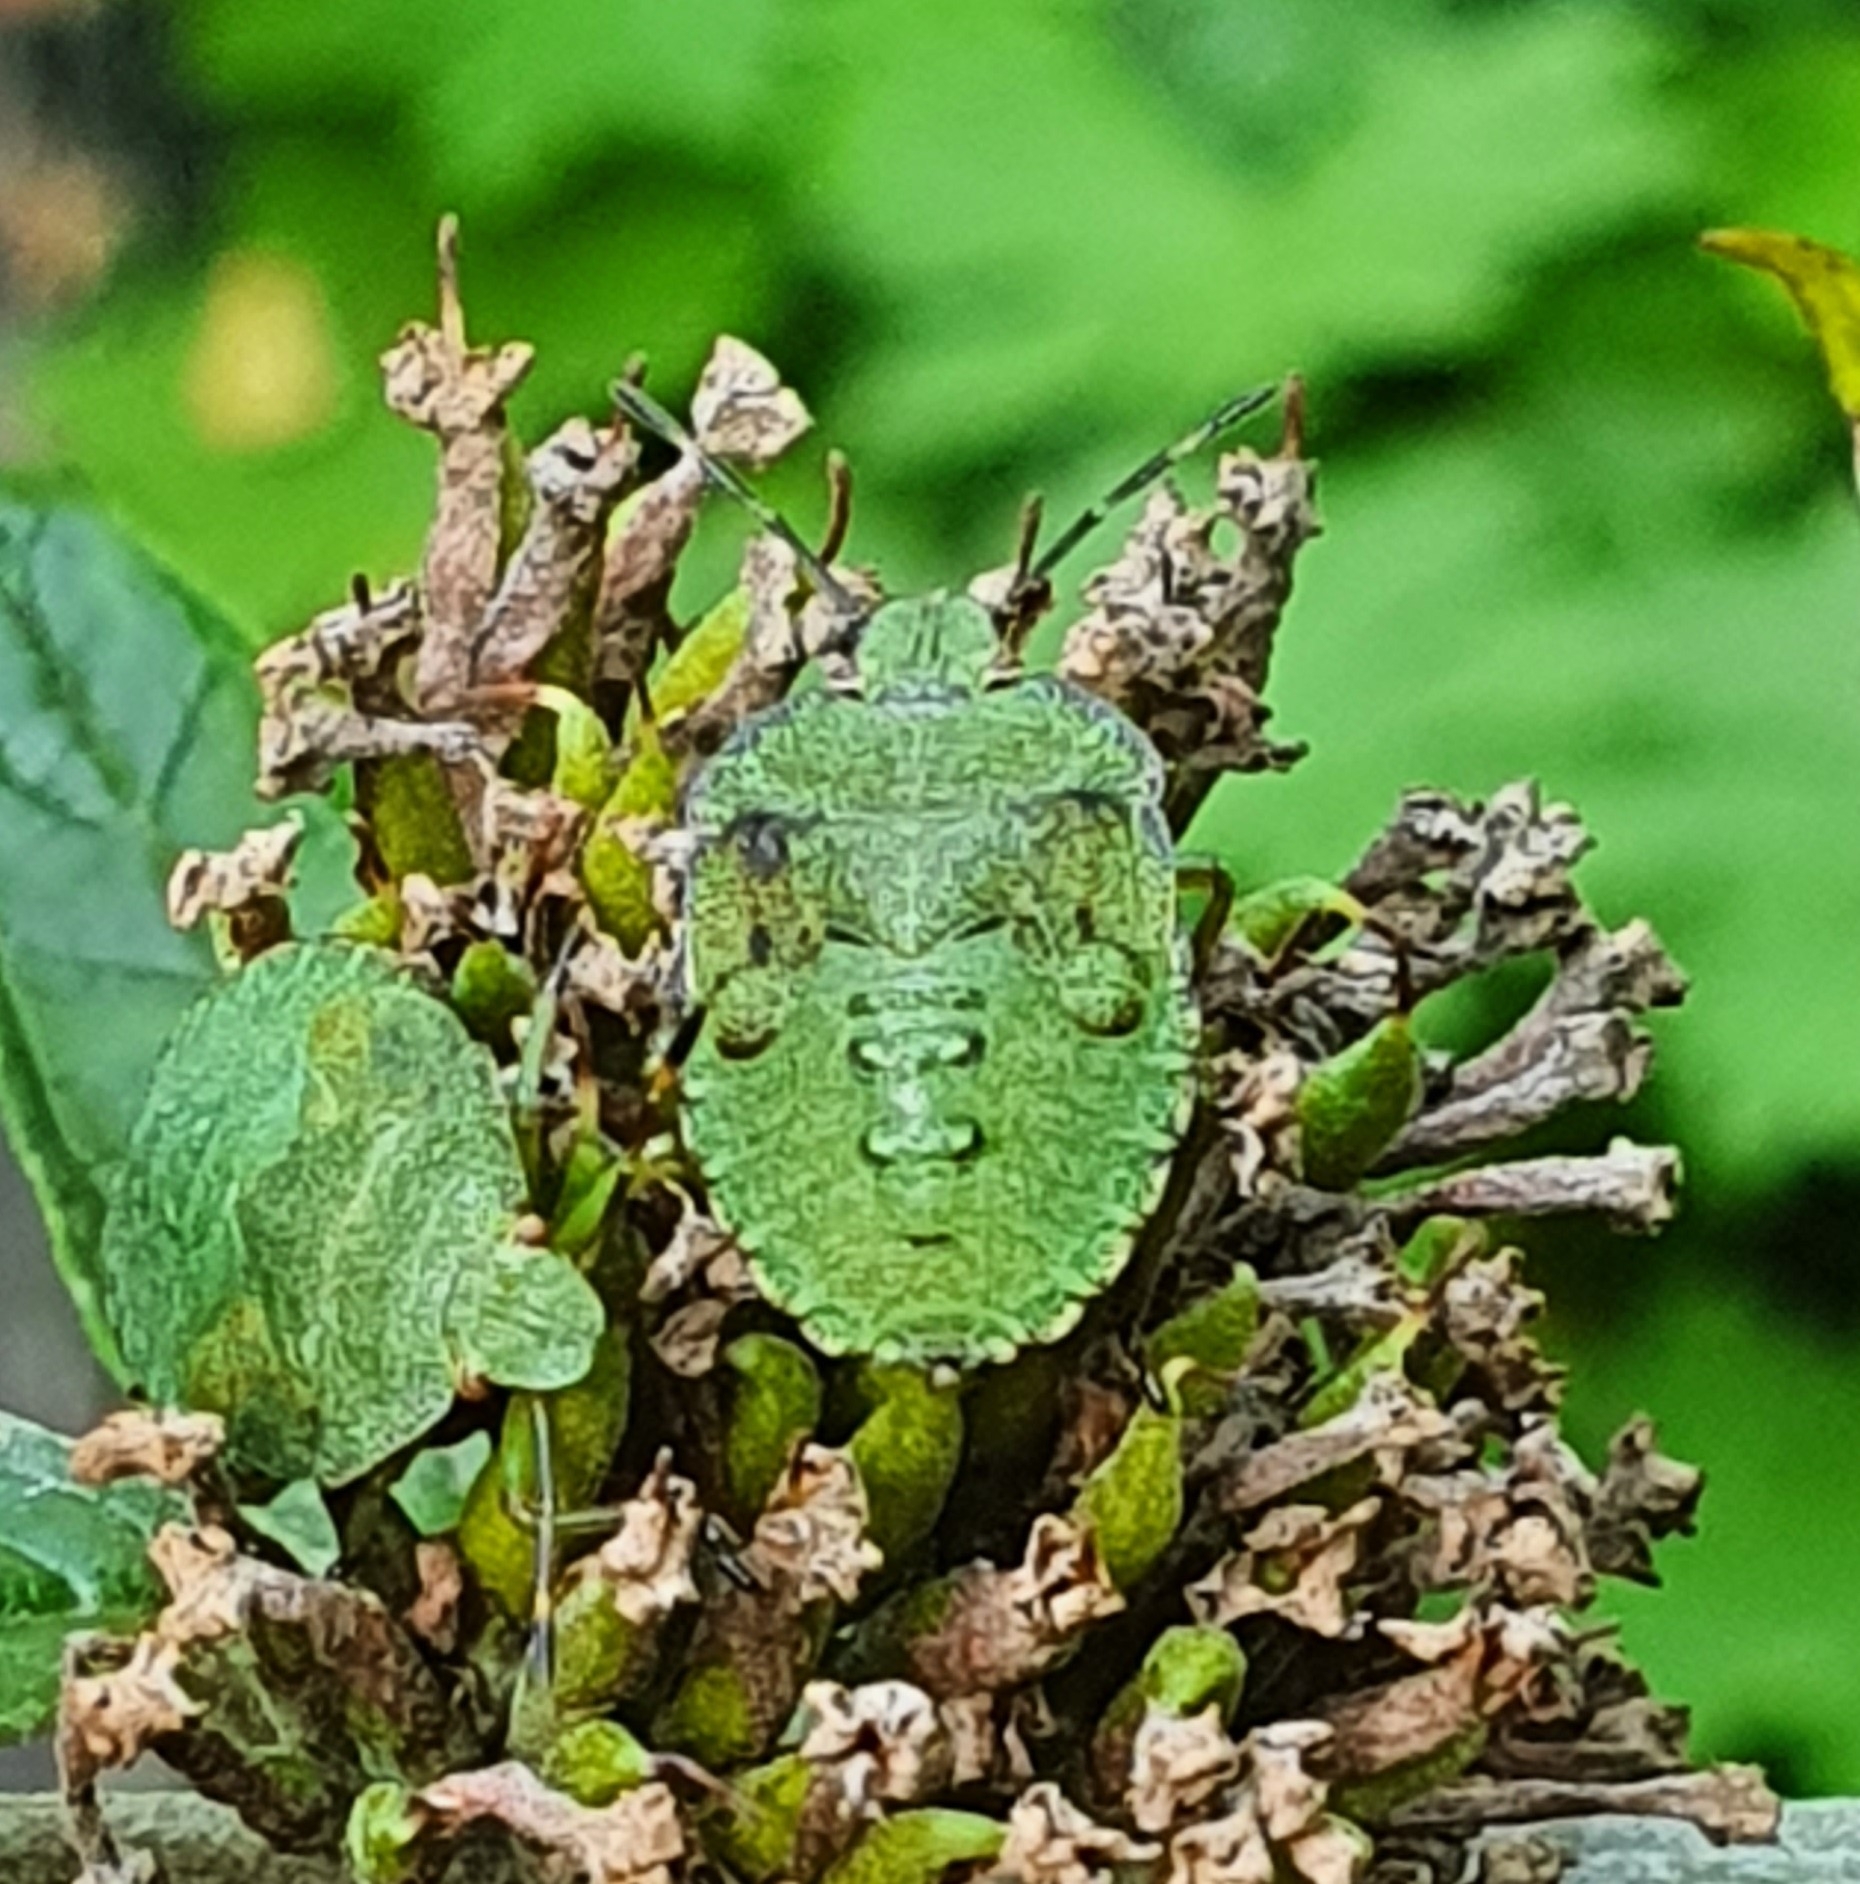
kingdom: Animalia
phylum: Arthropoda
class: Insecta
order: Hemiptera
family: Pentatomidae
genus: Palomena
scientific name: Palomena prasina
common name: Green shieldbug
